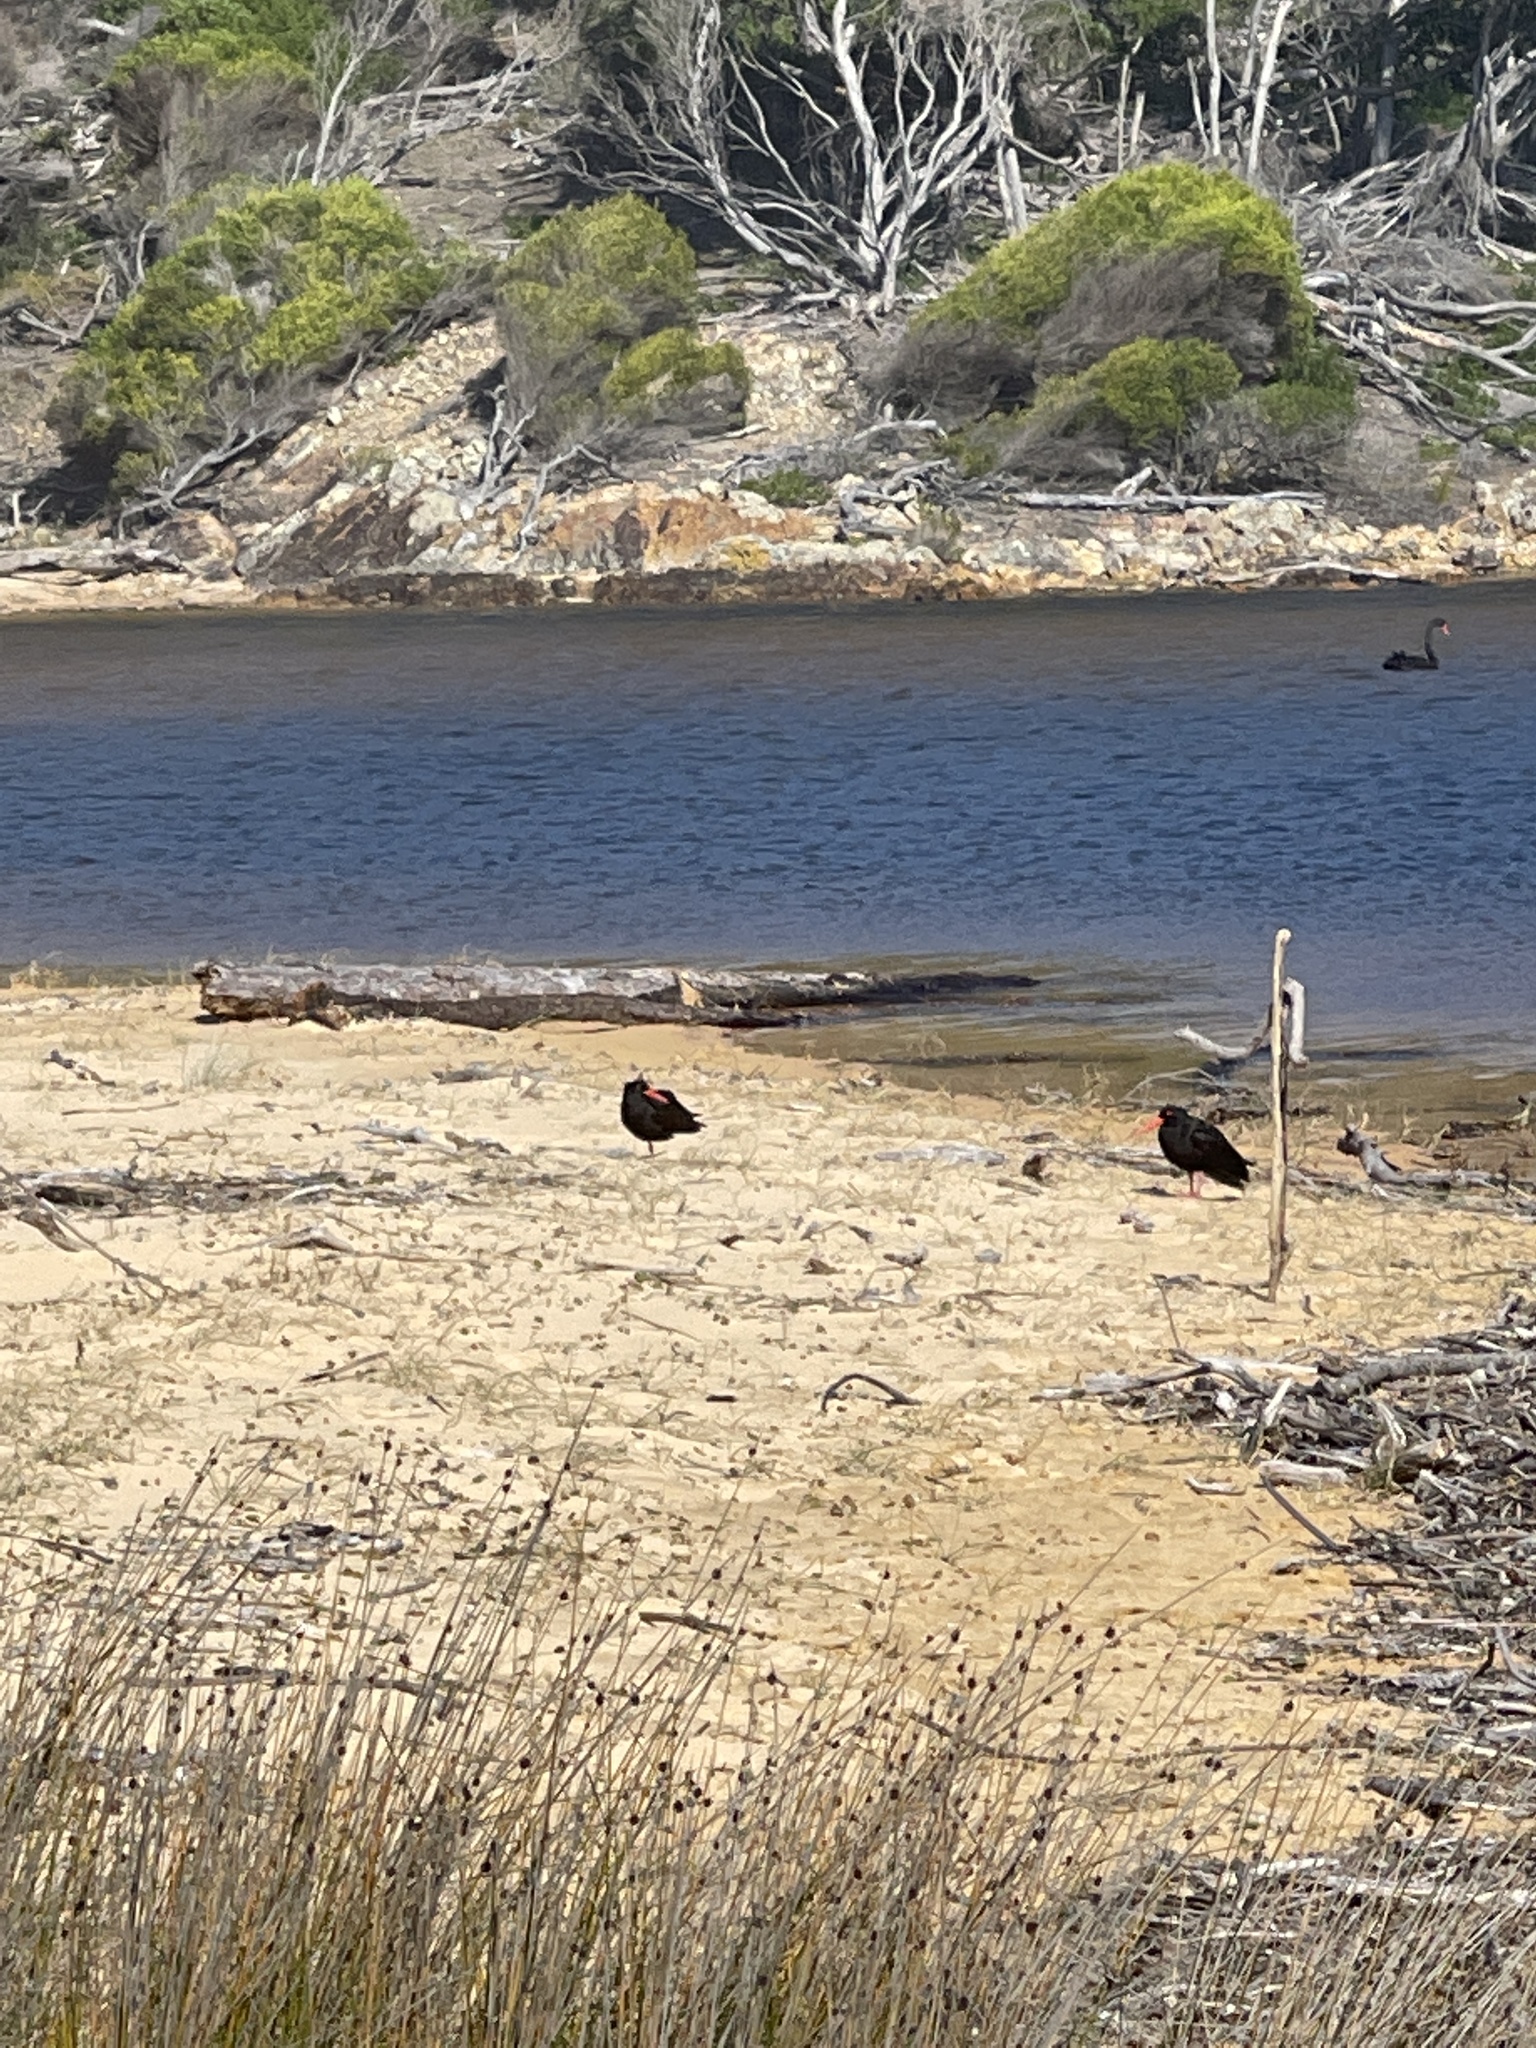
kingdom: Animalia
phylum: Chordata
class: Aves
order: Charadriiformes
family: Haematopodidae
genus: Haematopus
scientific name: Haematopus fuliginosus
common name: Sooty oystercatcher
